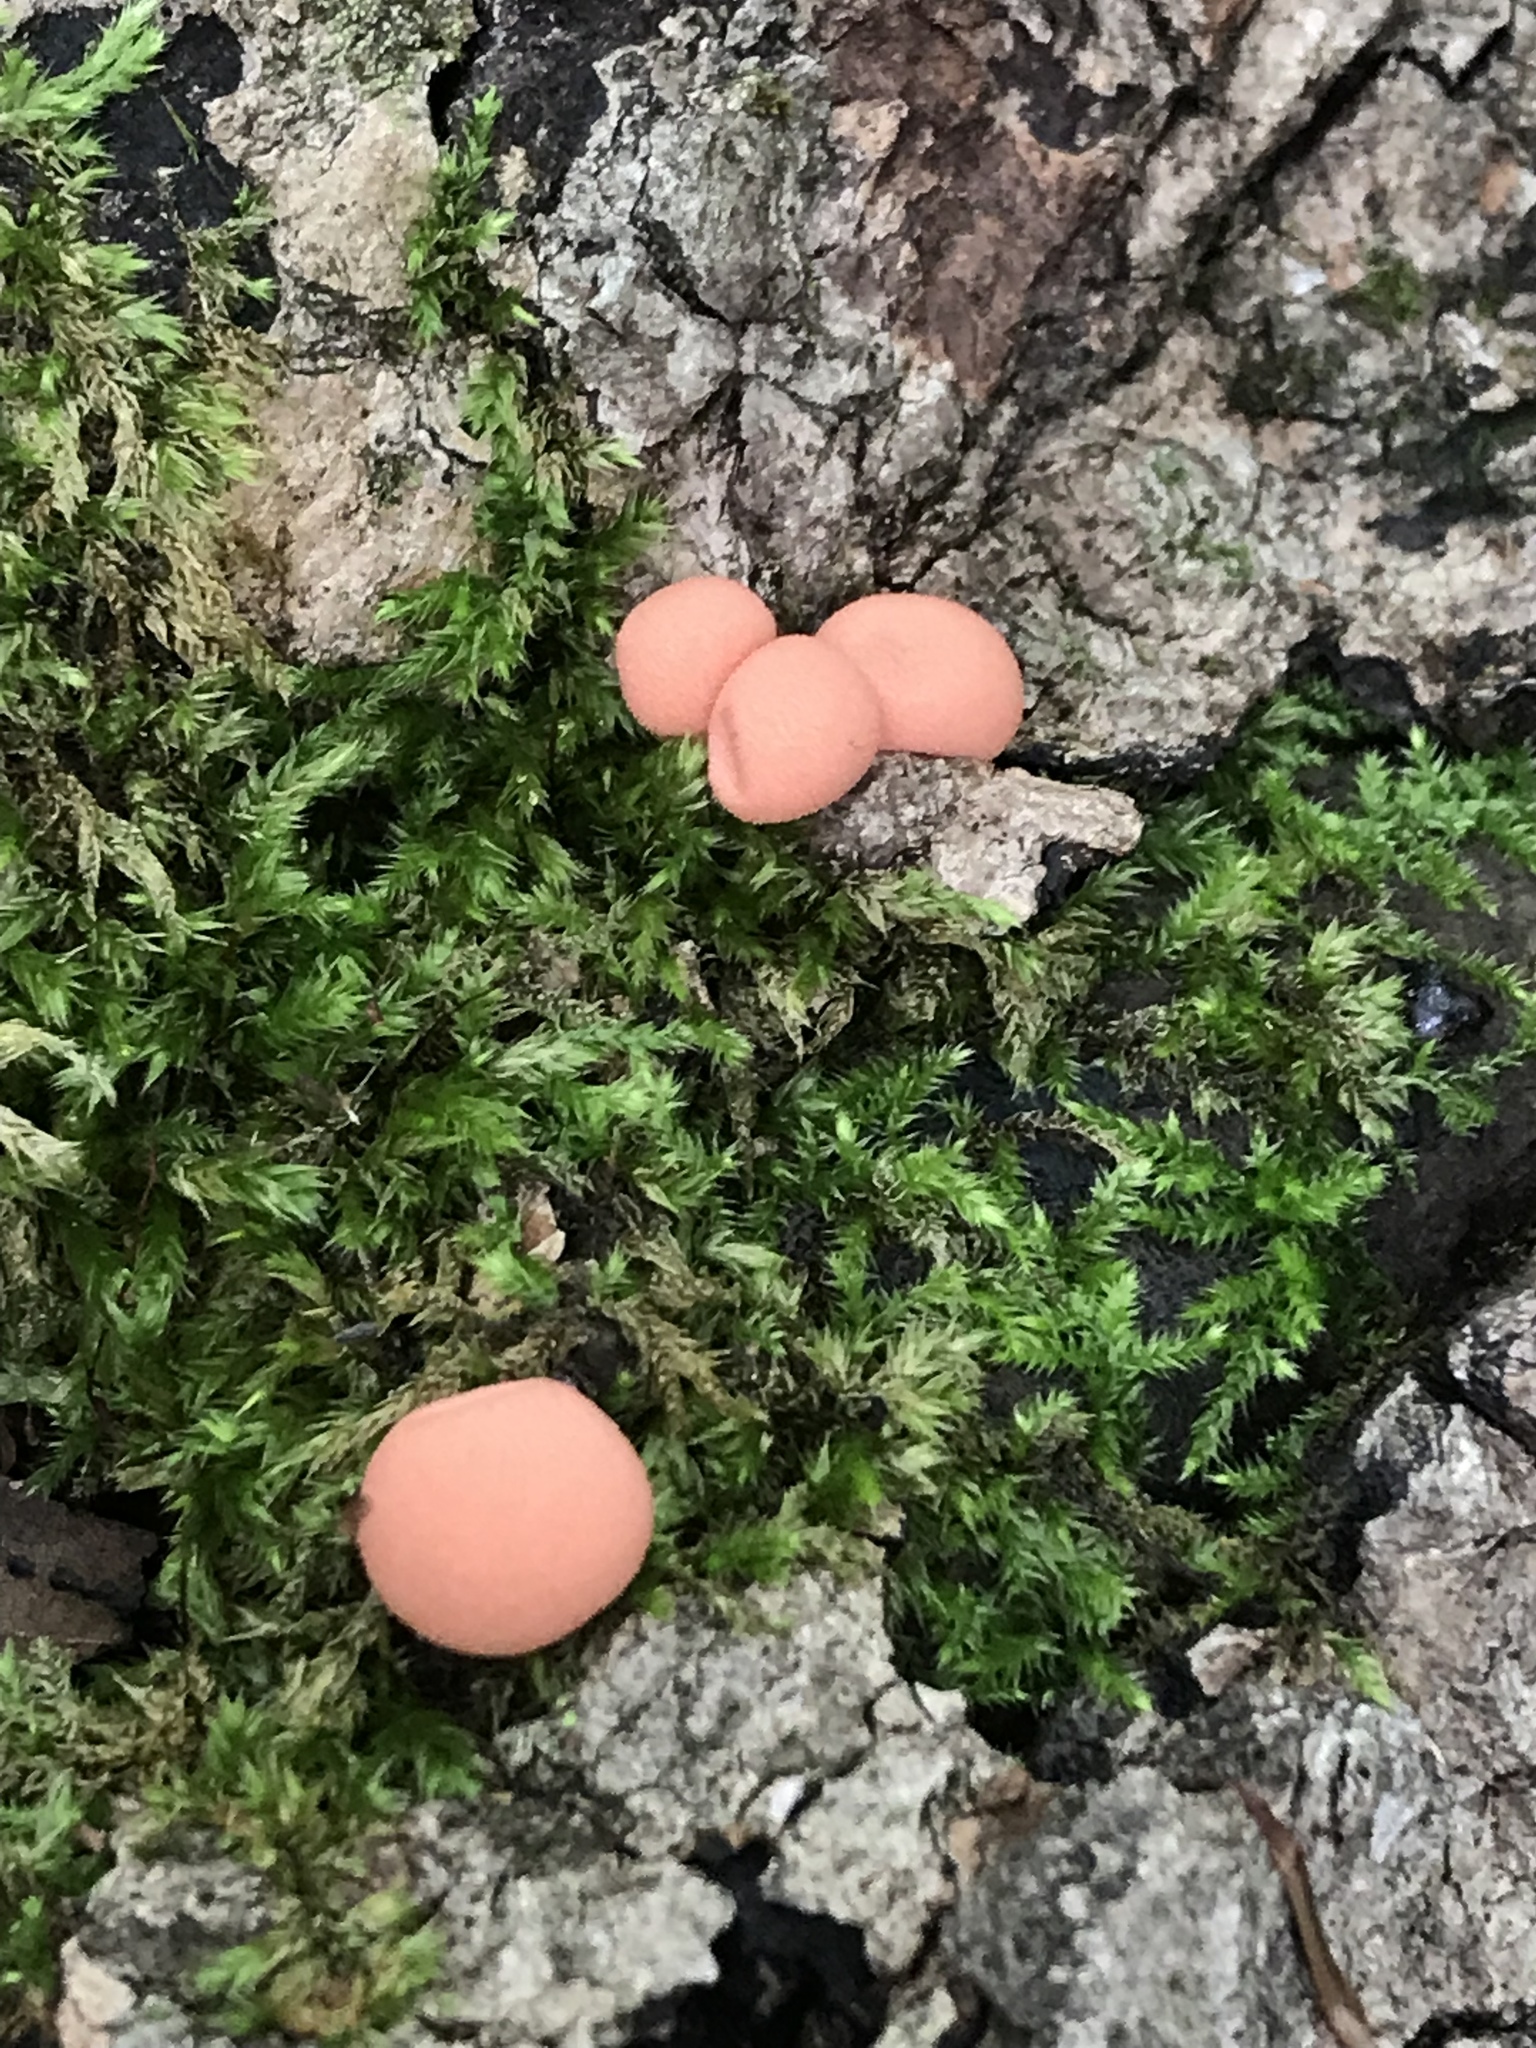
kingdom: Protozoa
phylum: Mycetozoa
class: Myxomycetes
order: Cribrariales
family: Tubiferaceae
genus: Lycogala
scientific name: Lycogala epidendrum
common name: Wolf's milk
